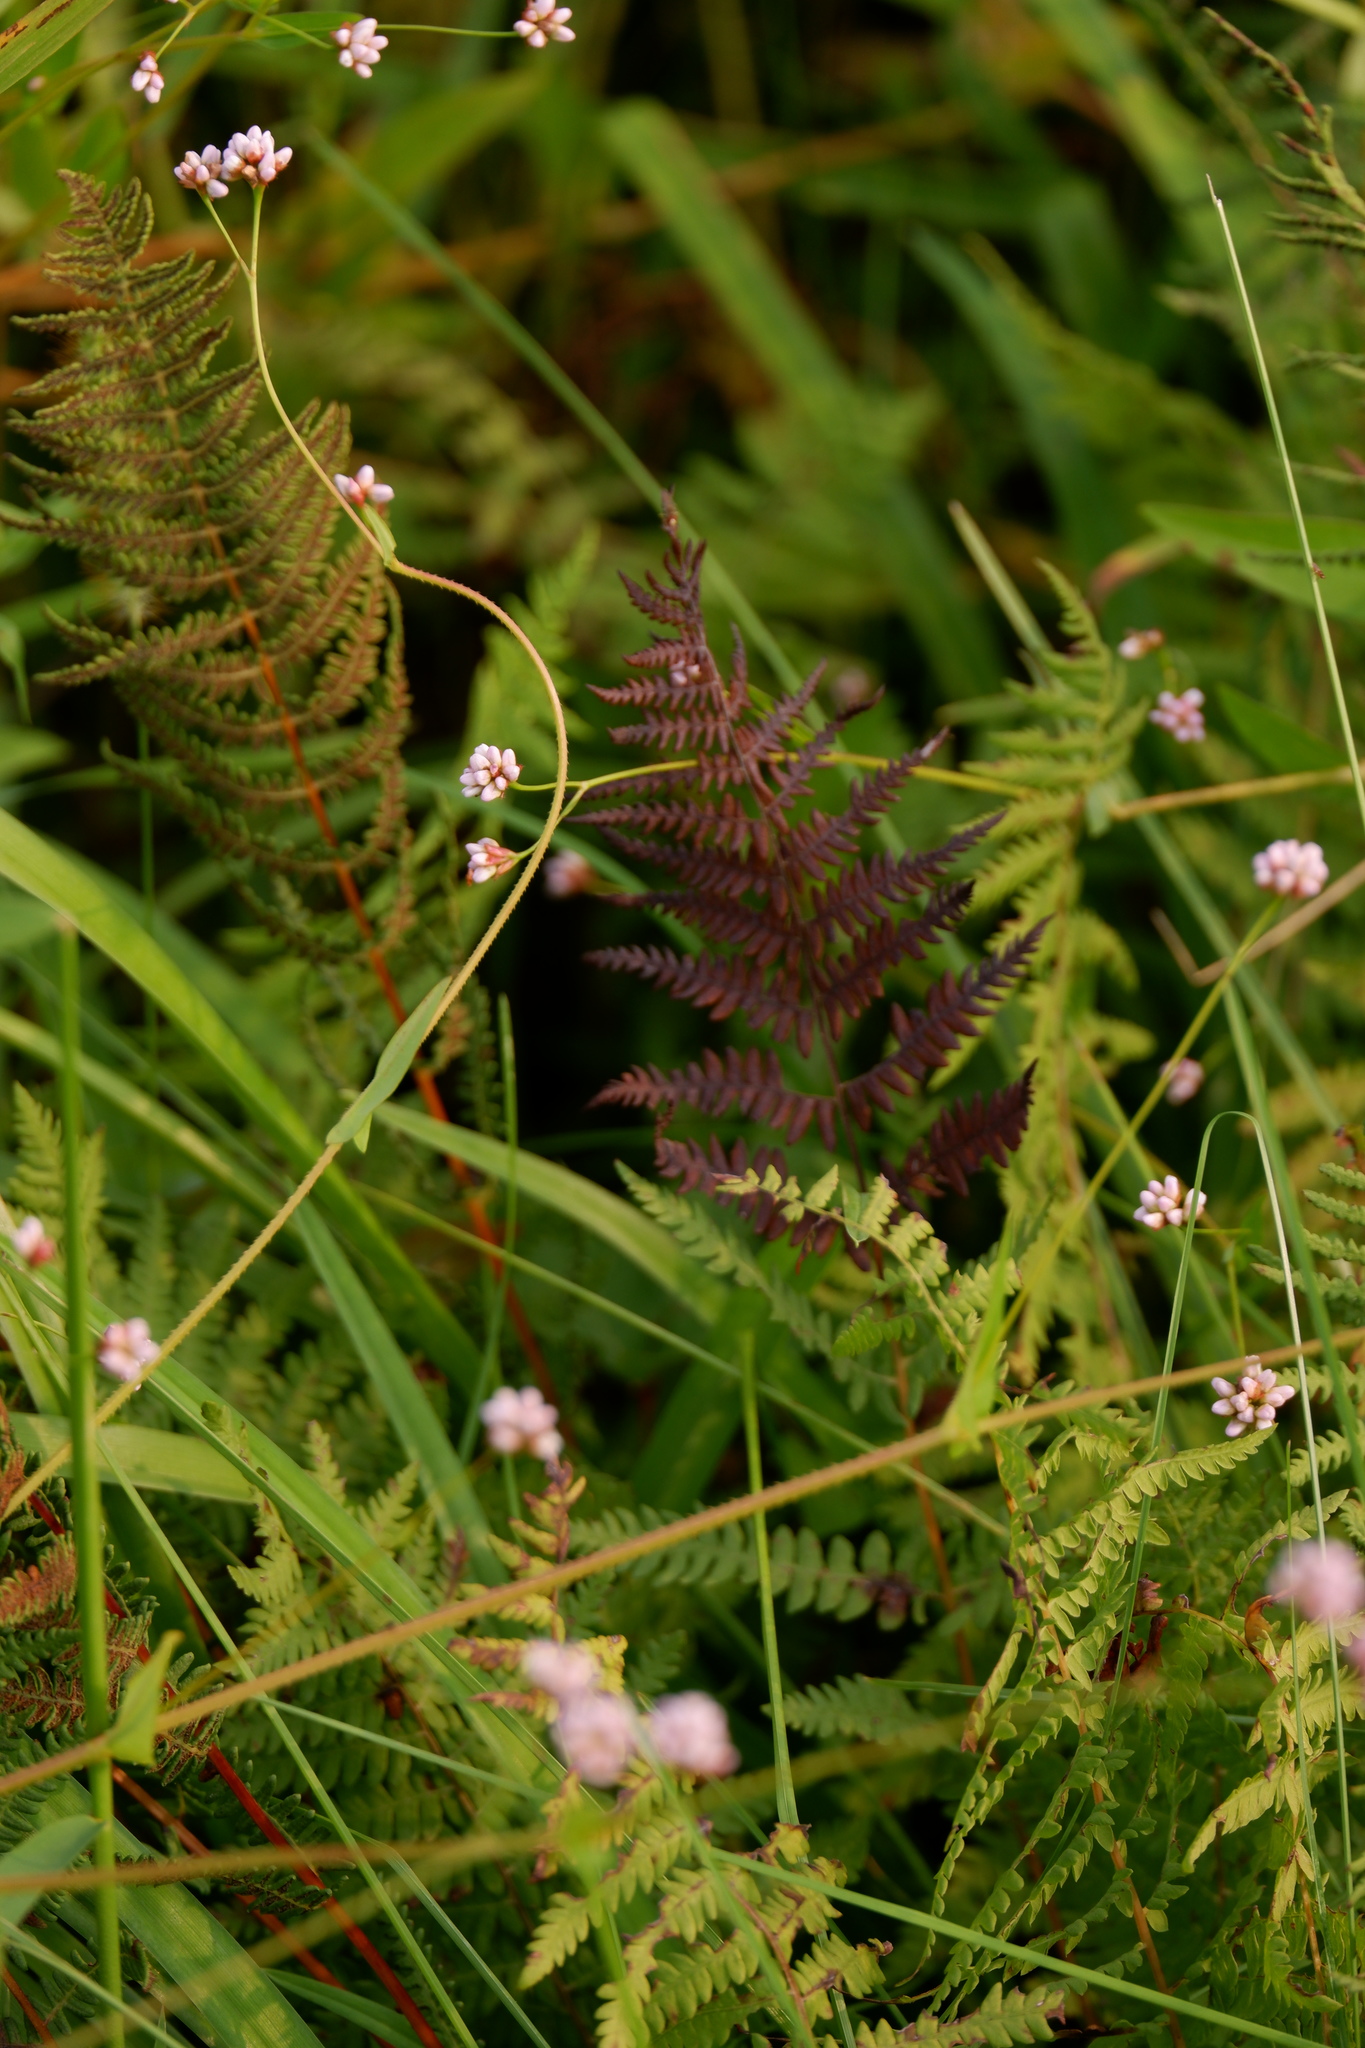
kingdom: Plantae
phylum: Tracheophyta
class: Polypodiopsida
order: Polypodiales
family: Thelypteridaceae
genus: Thelypteris
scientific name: Thelypteris palustris
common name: Marsh fern
